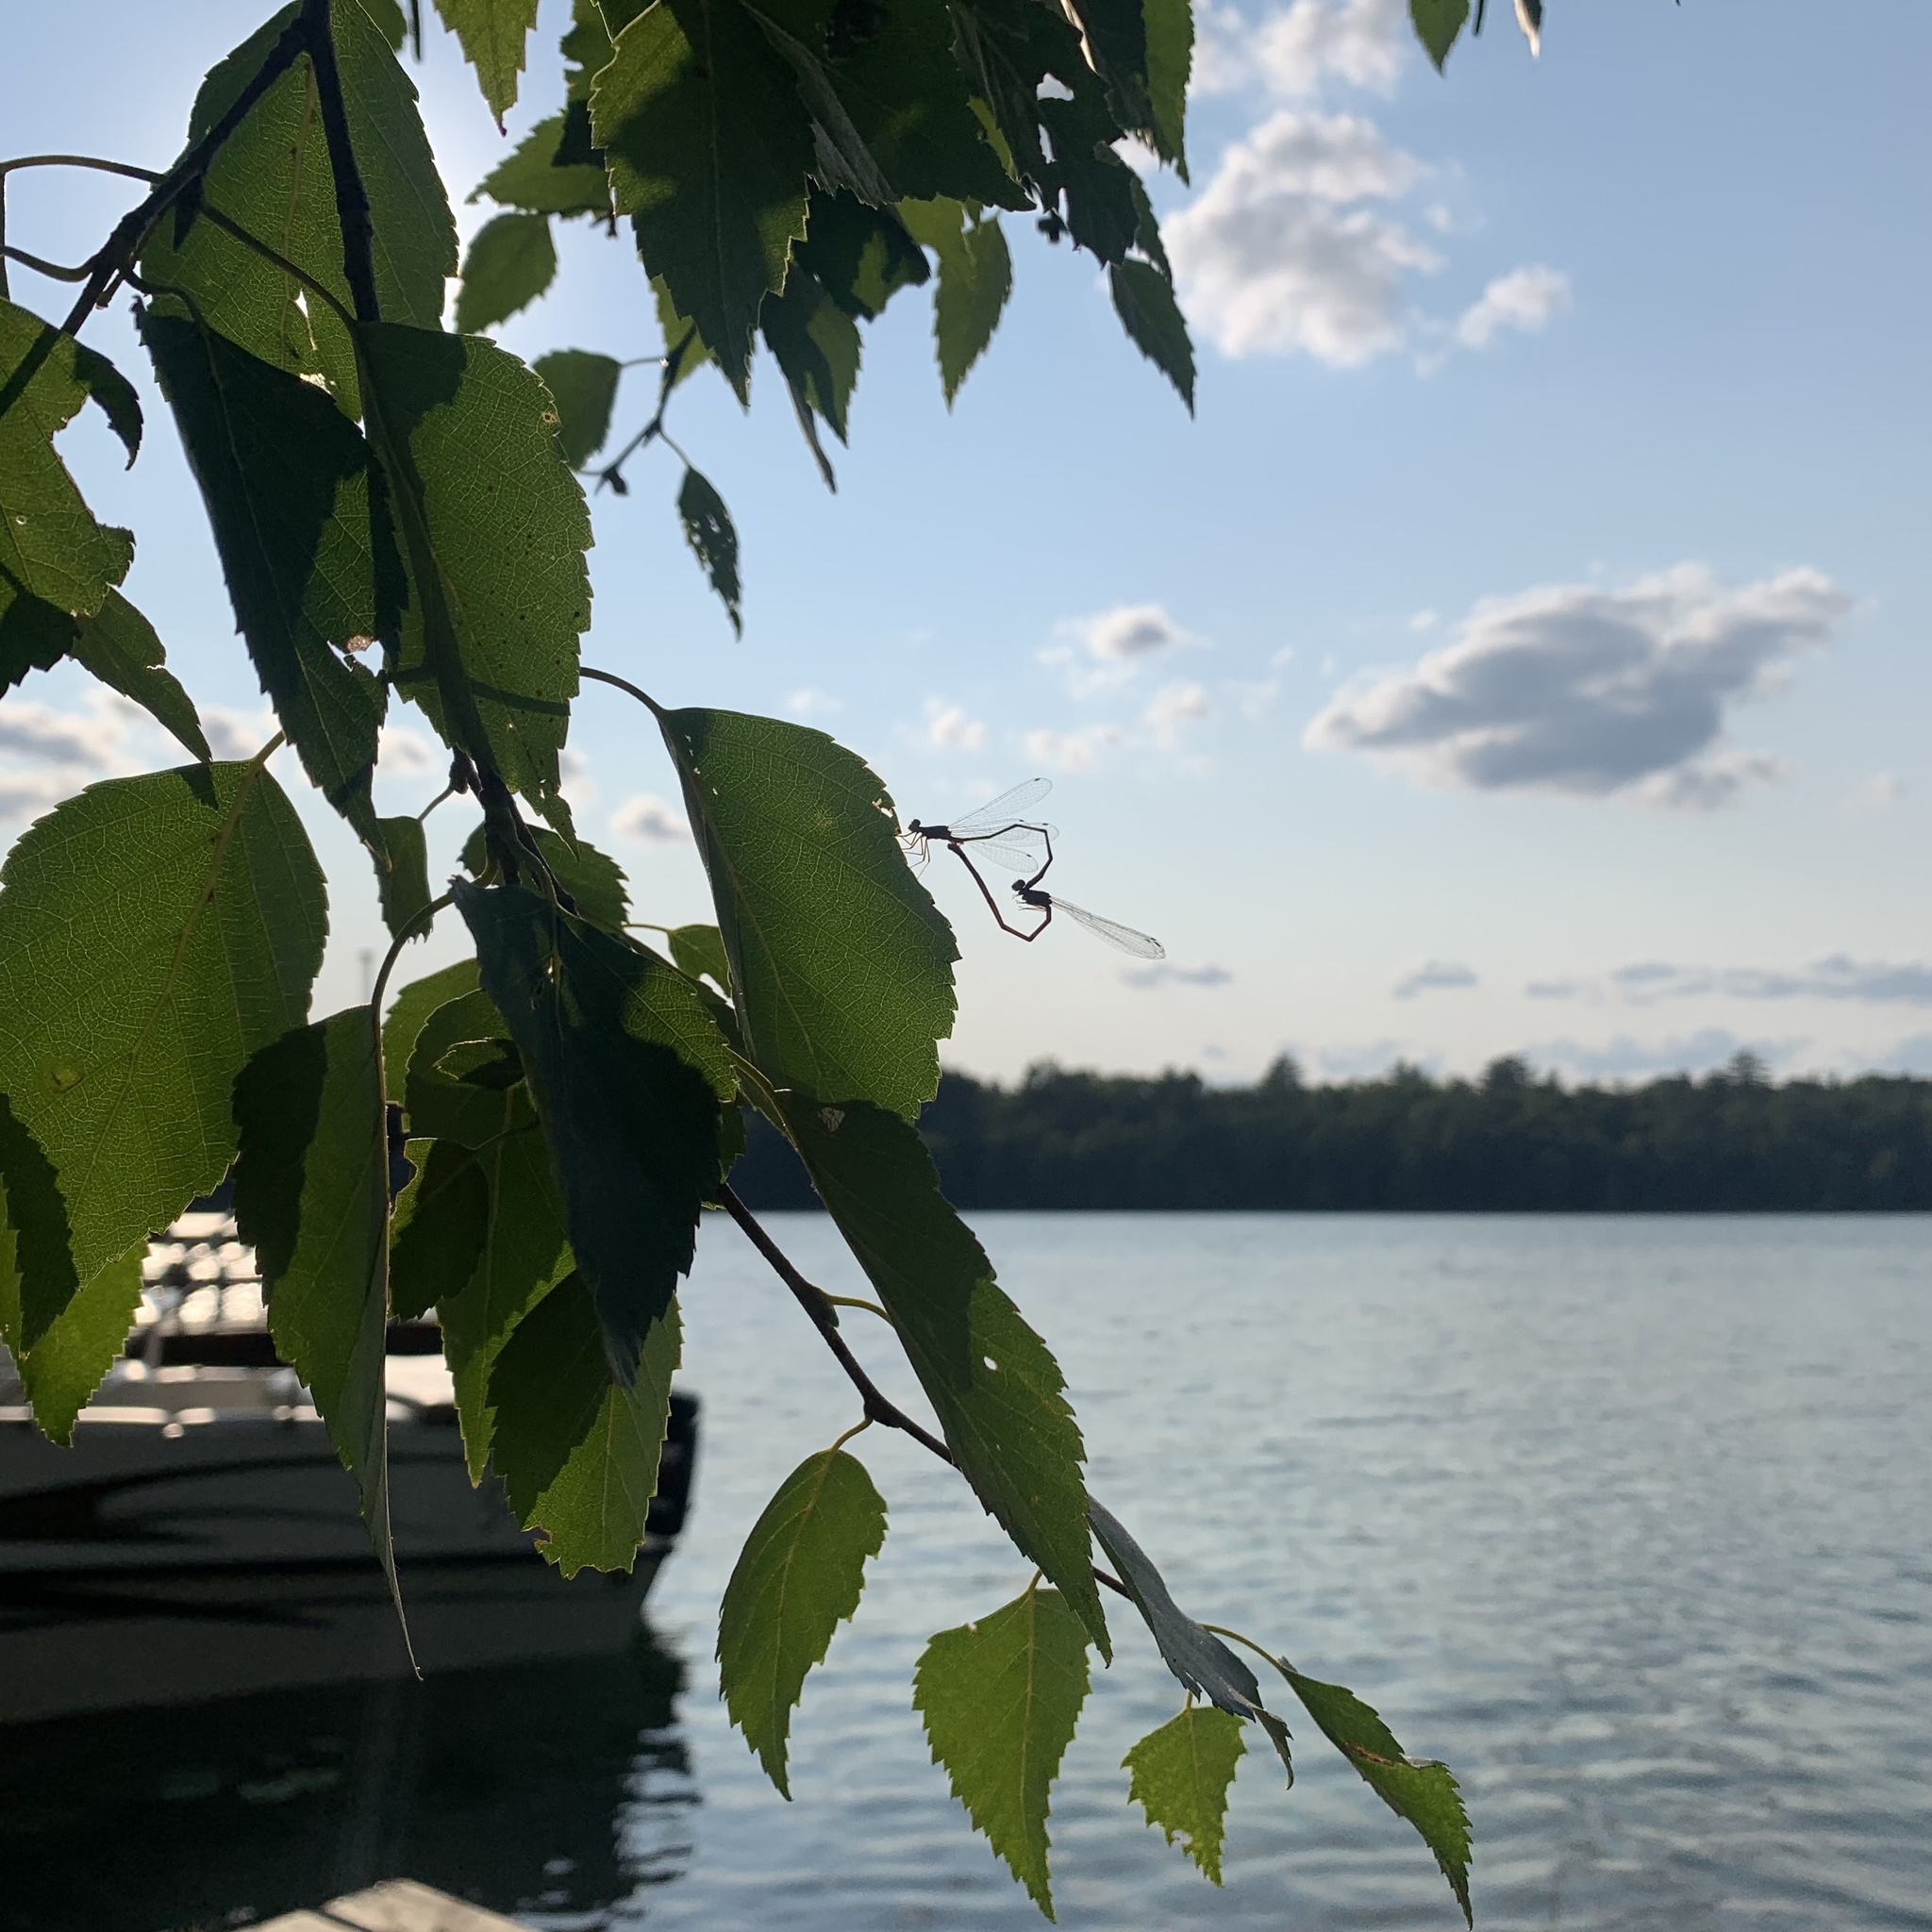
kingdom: Animalia
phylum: Arthropoda
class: Insecta
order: Odonata
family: Coenagrionidae
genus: Enallagma
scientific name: Enallagma signatum
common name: Orange bluet
